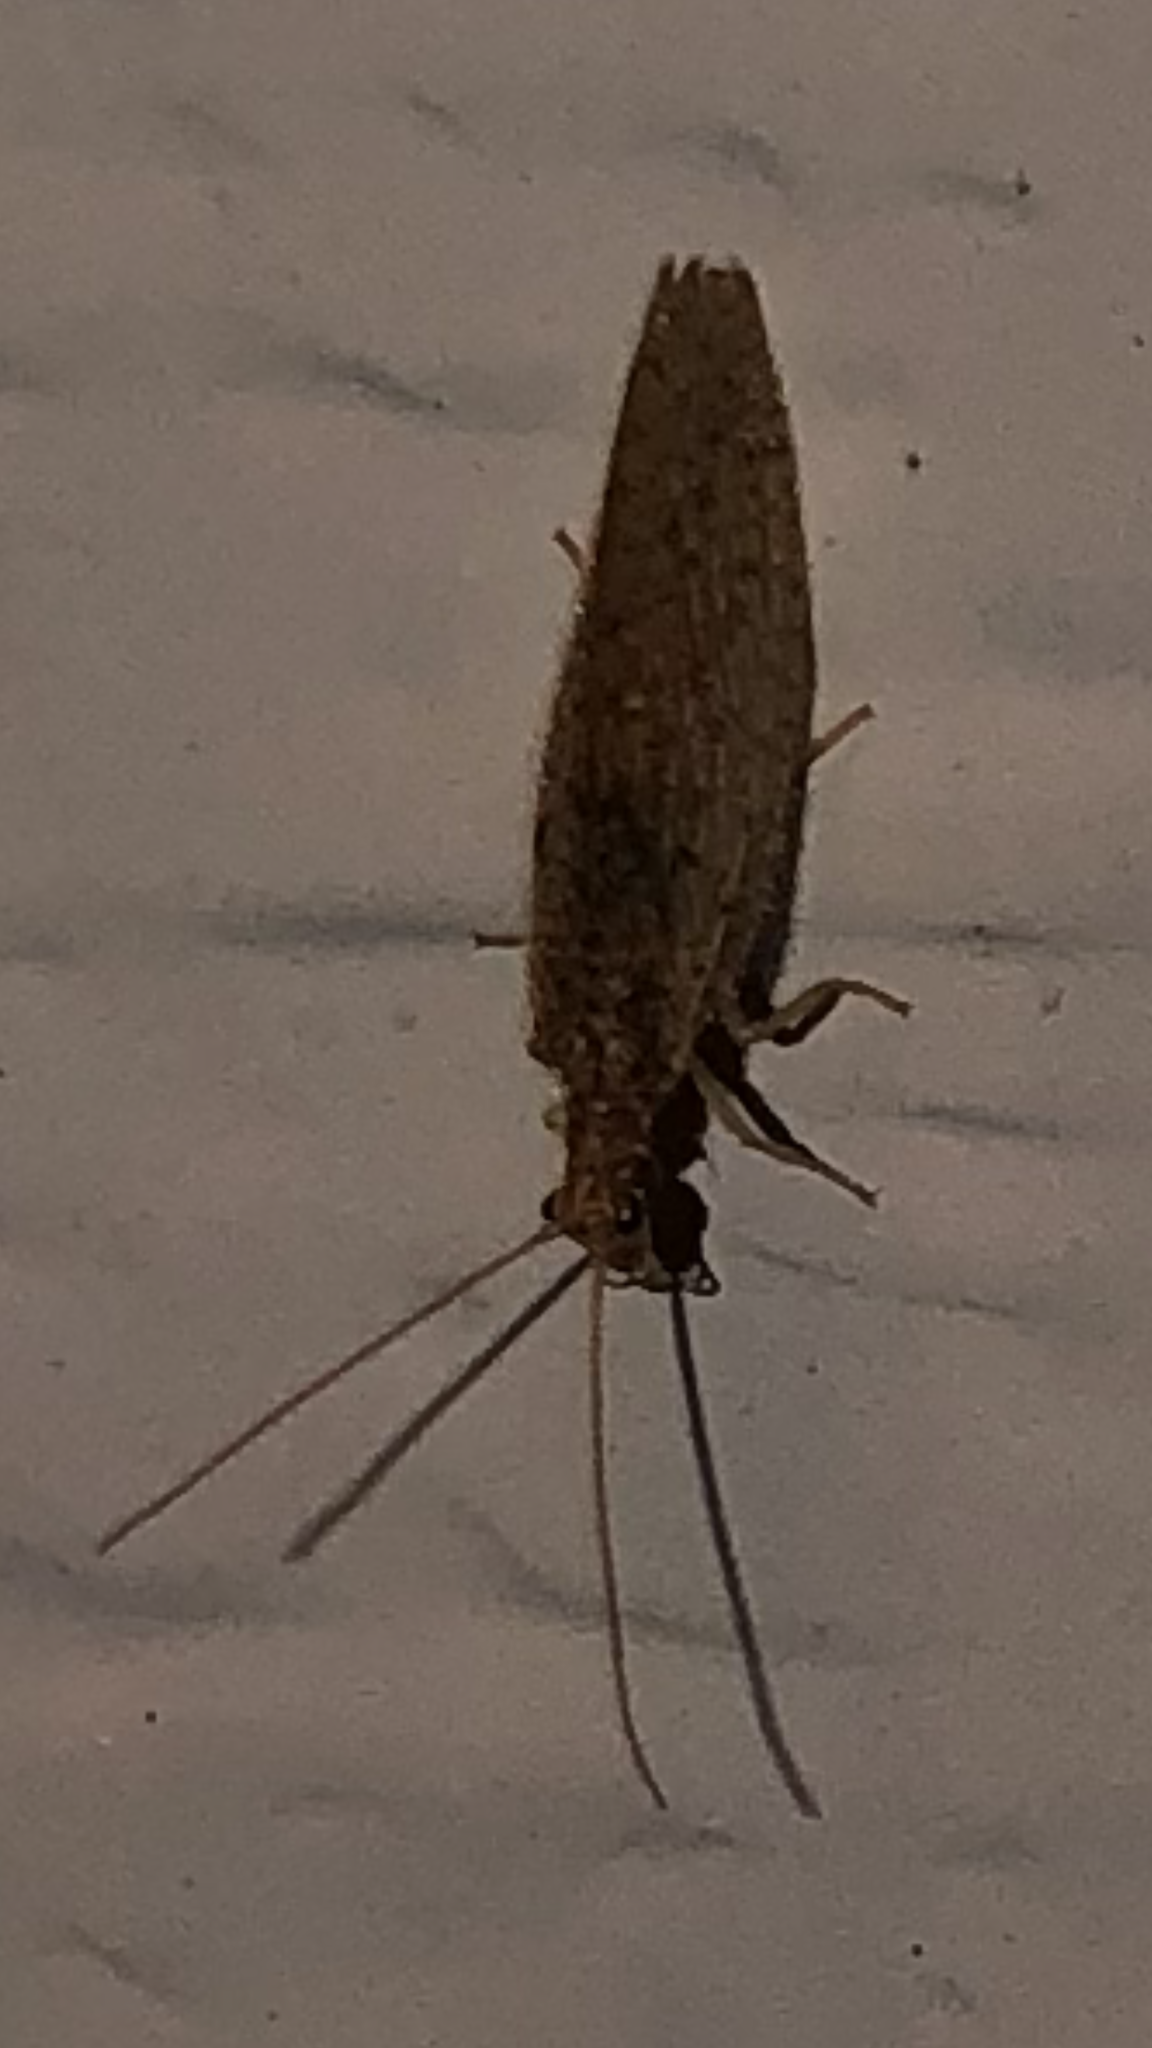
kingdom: Animalia
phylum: Arthropoda
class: Insecta
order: Neuroptera
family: Hemerobiidae
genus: Micromus
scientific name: Micromus subanticus
